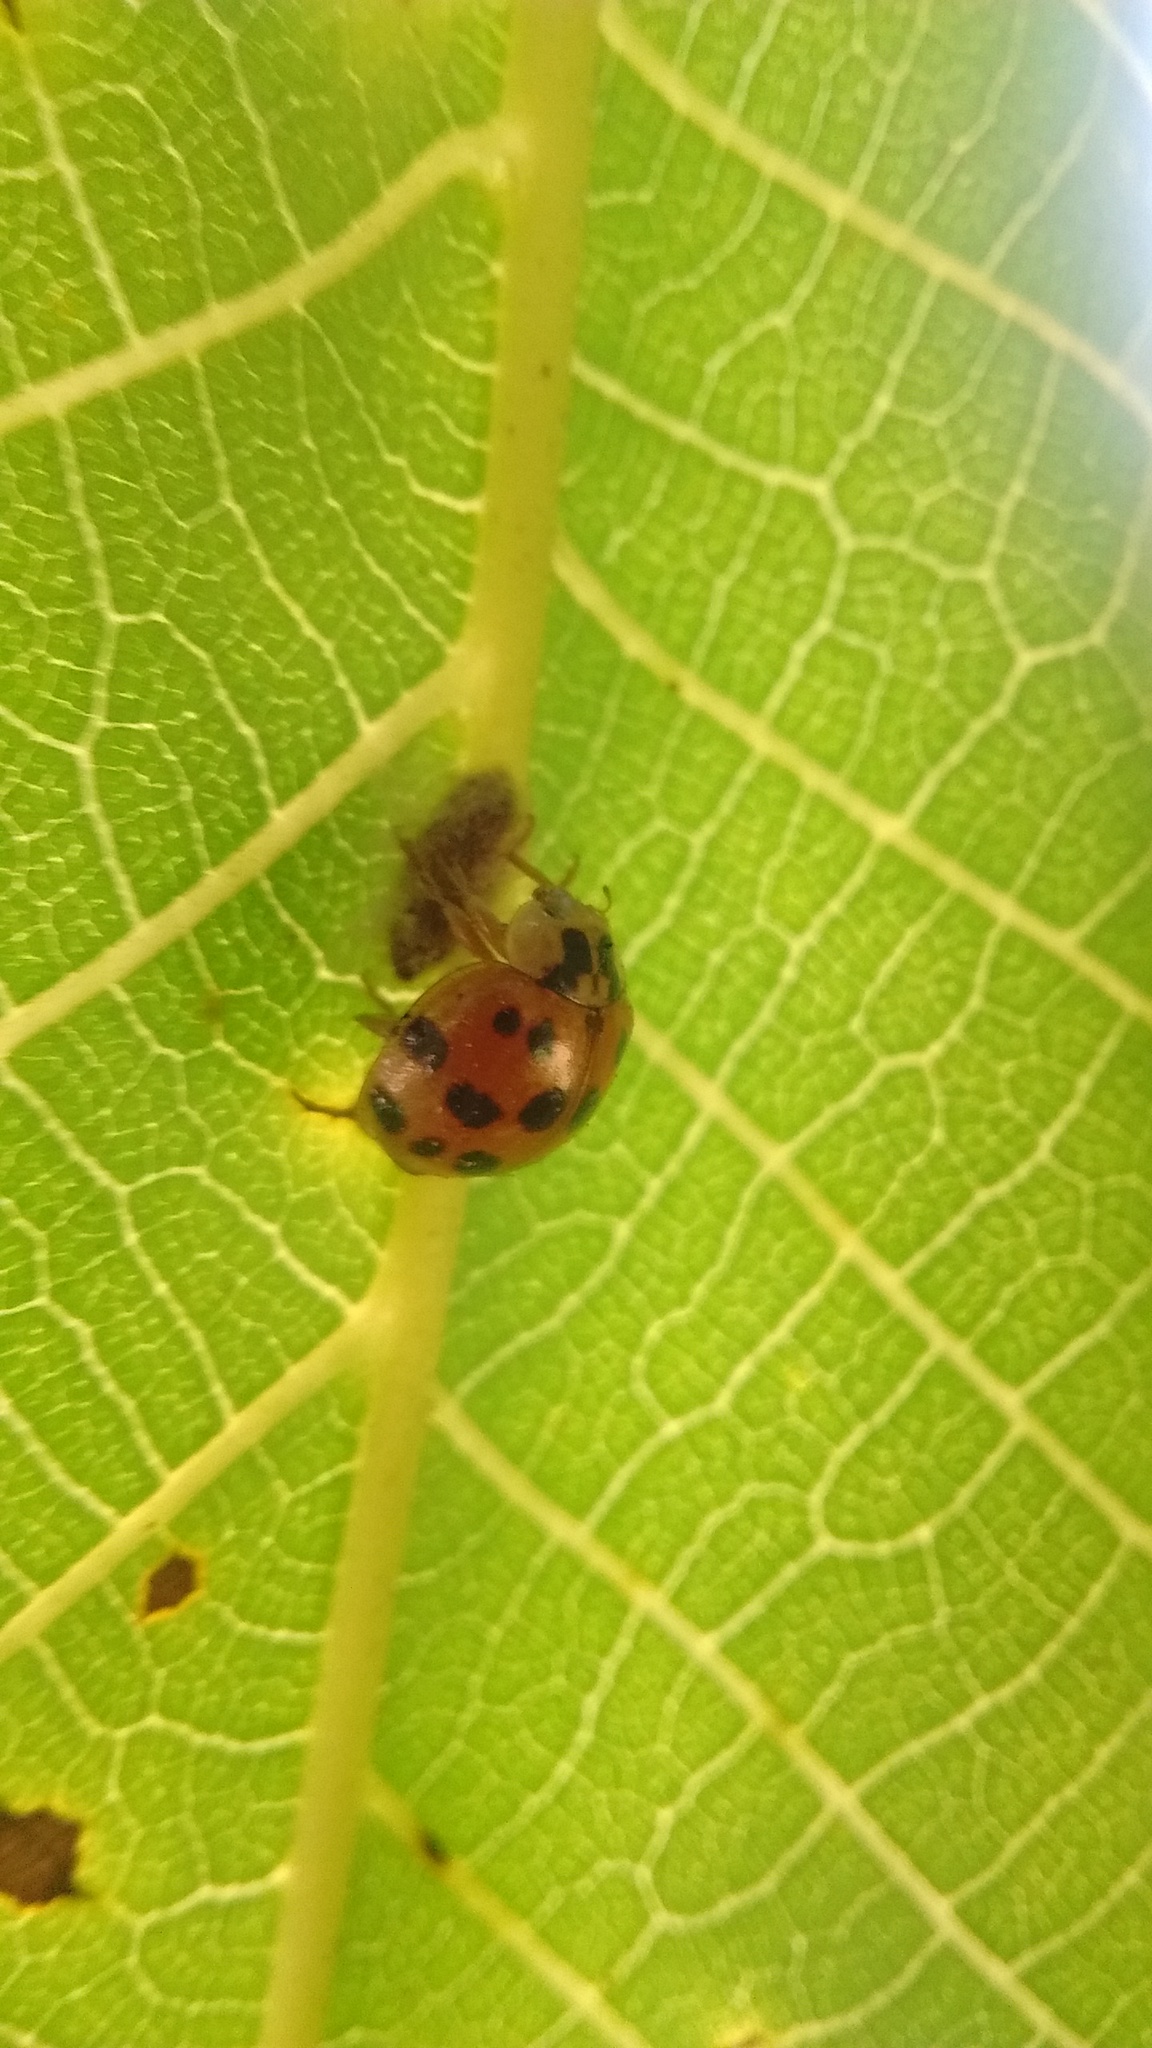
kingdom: Animalia
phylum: Arthropoda
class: Insecta
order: Coleoptera
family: Coccinellidae
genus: Harmonia
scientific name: Harmonia axyridis
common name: Harlequin ladybird
